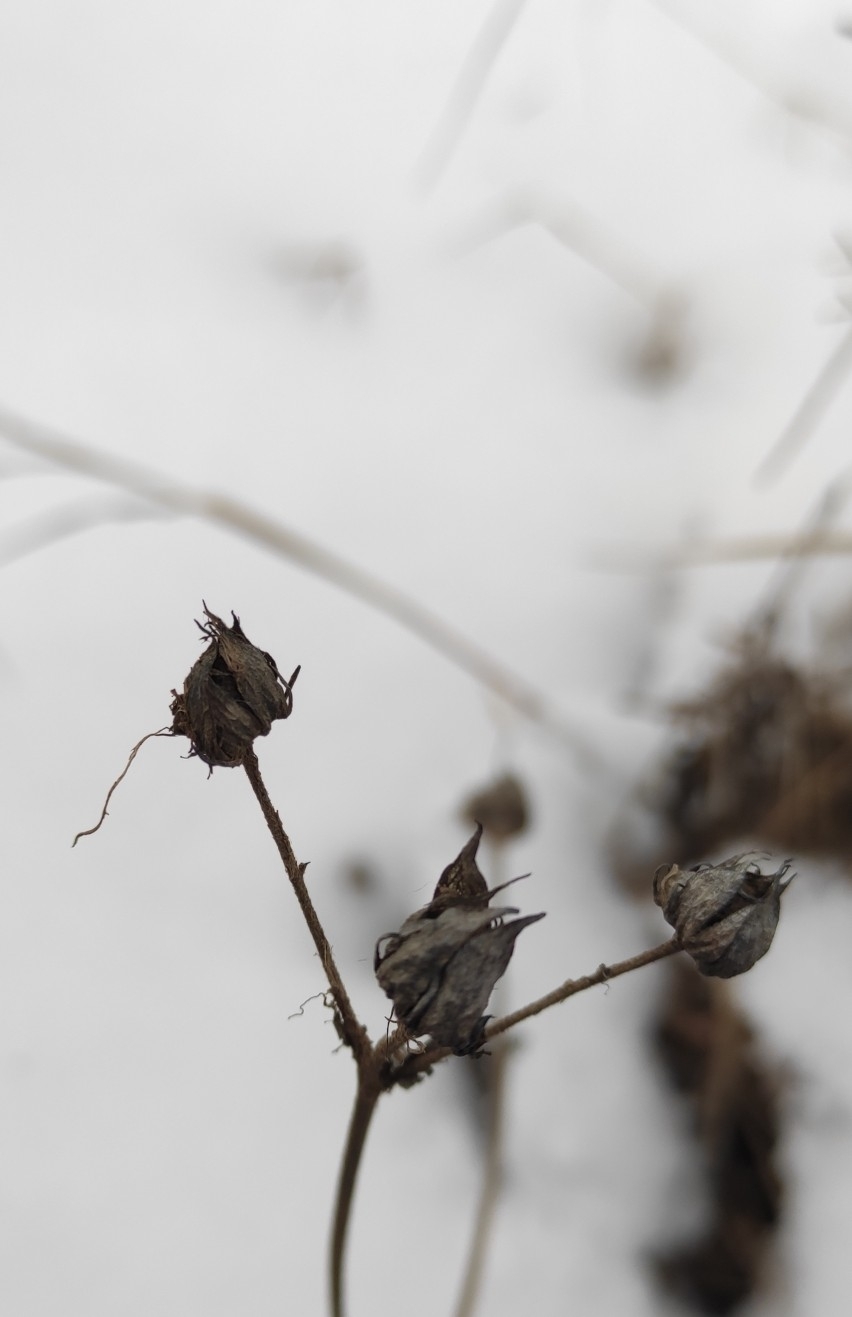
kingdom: Plantae
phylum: Tracheophyta
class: Magnoliopsida
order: Rosales
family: Rosaceae
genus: Comarum
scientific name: Comarum palustre
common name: Marsh cinquefoil
